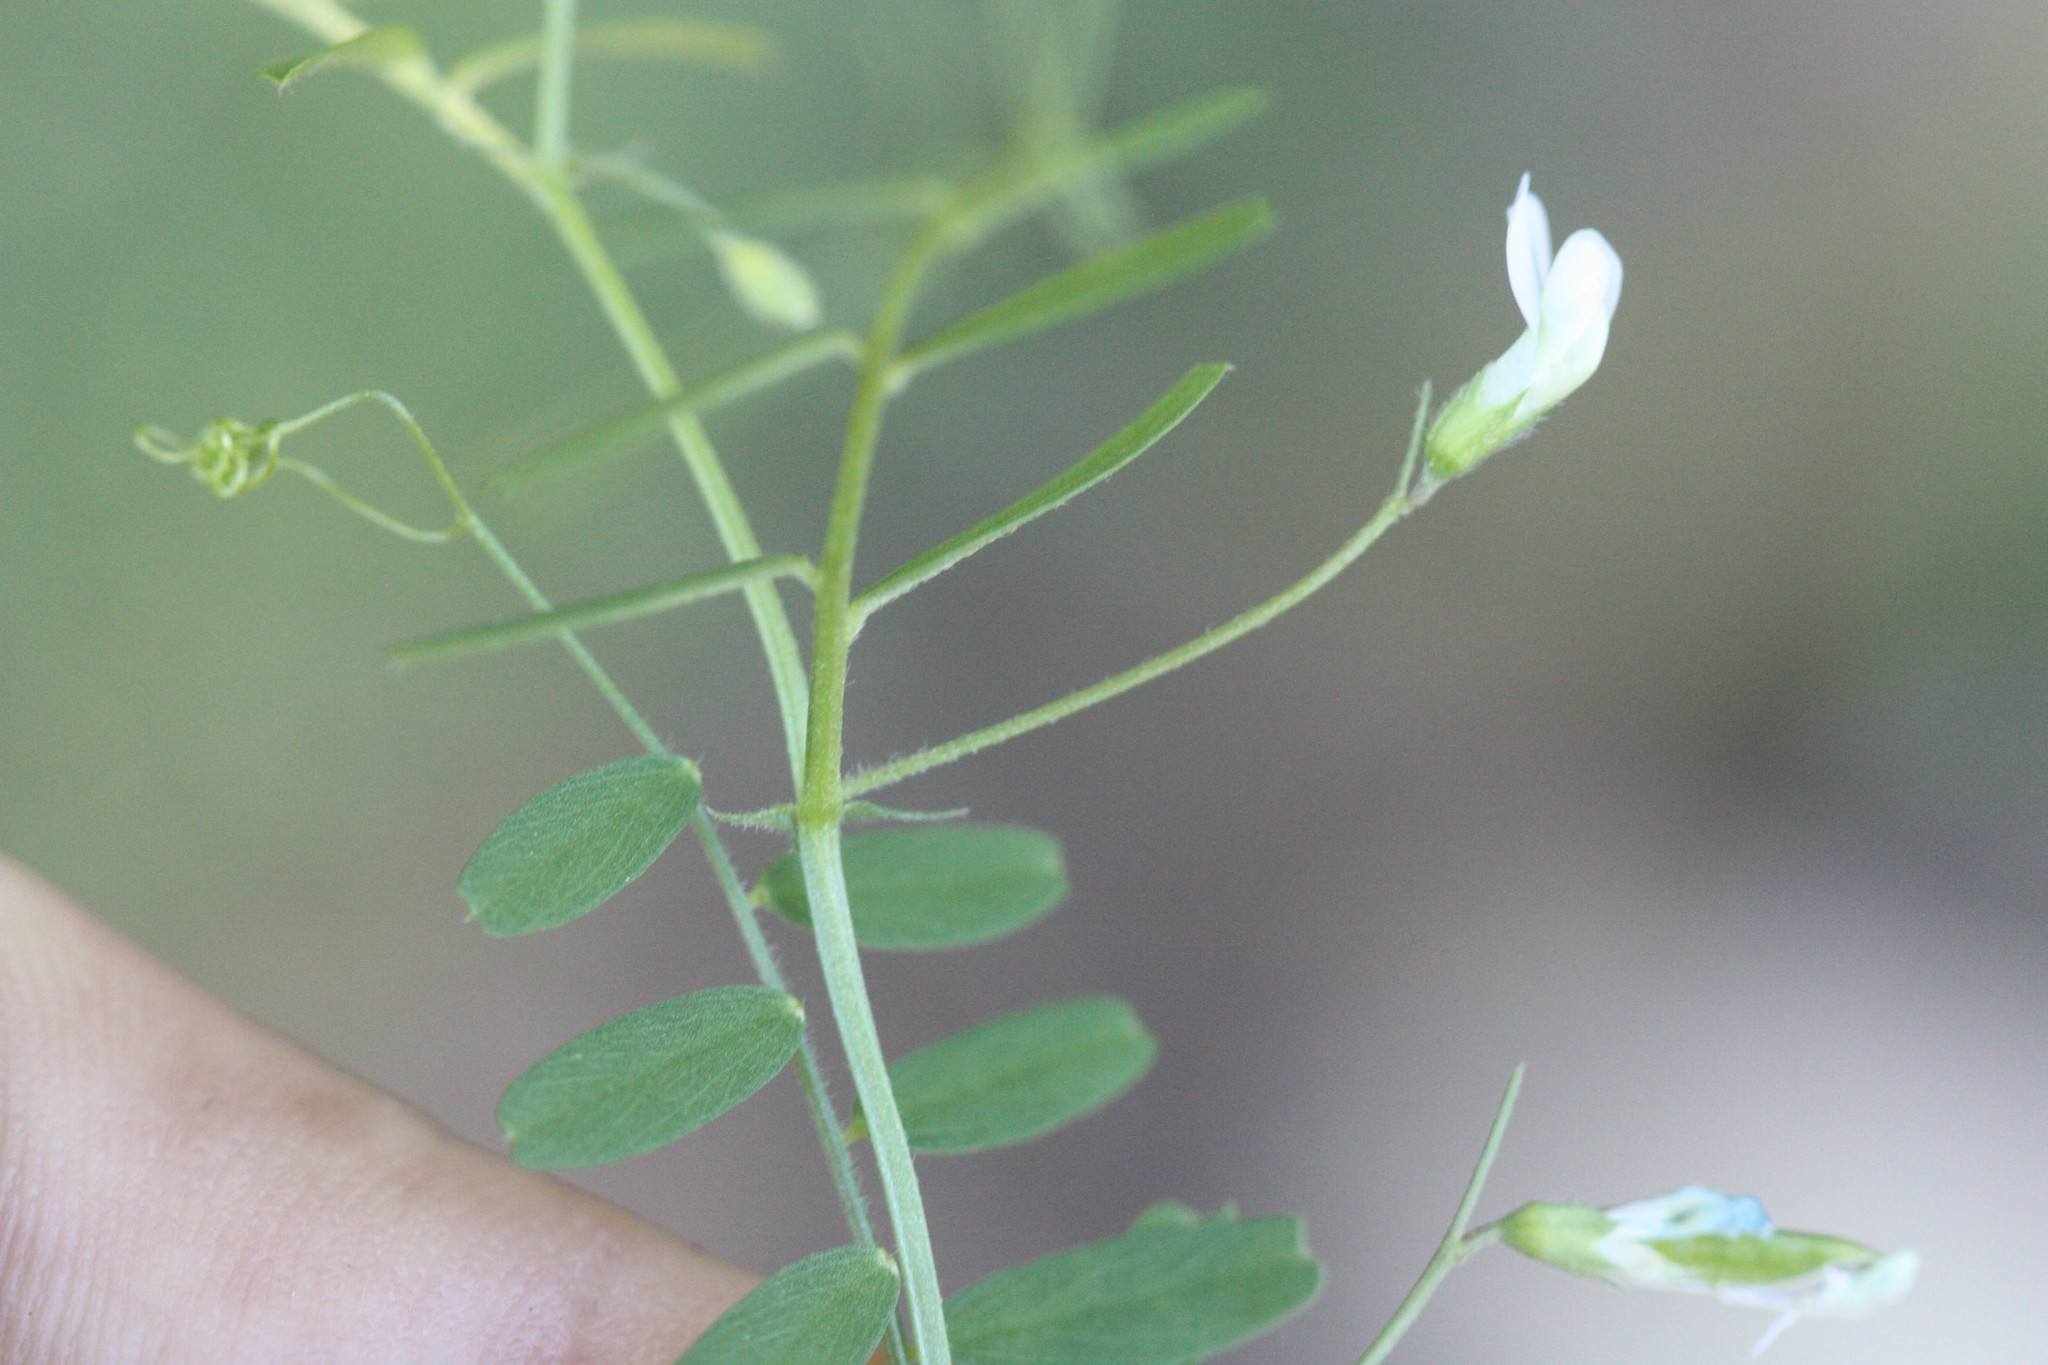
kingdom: Plantae
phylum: Tracheophyta
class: Magnoliopsida
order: Fabales
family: Fabaceae
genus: Vicia
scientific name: Vicia hassei
